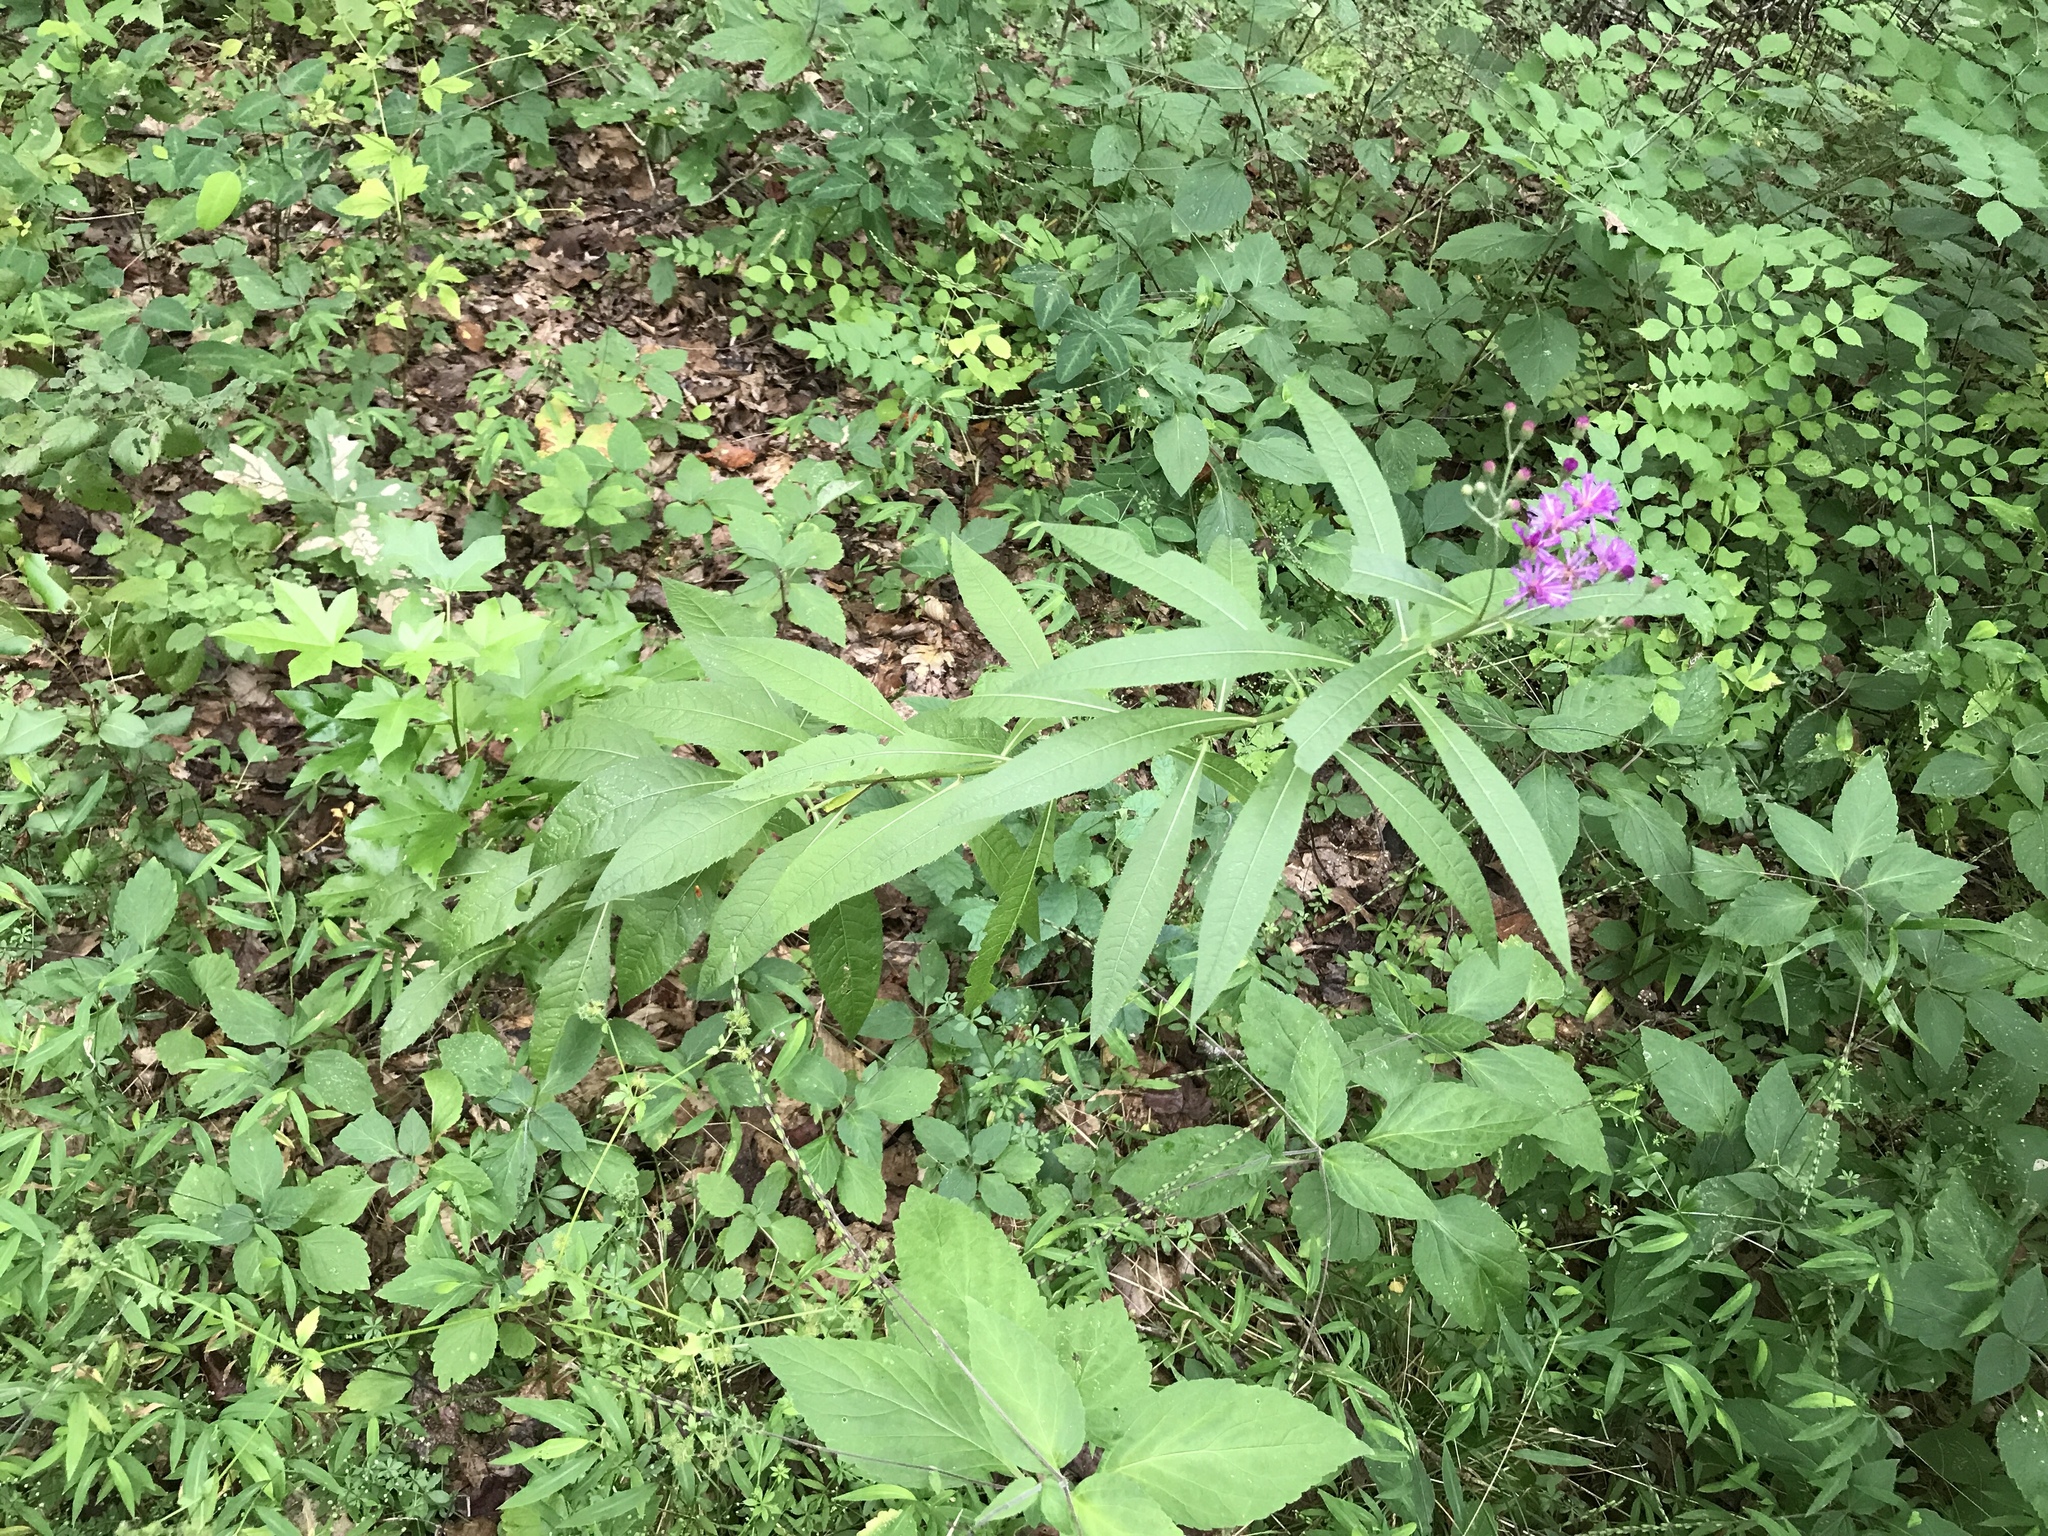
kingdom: Plantae
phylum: Tracheophyta
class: Magnoliopsida
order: Asterales
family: Asteraceae
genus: Vernonia
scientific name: Vernonia noveboracensis
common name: New york ironweed
